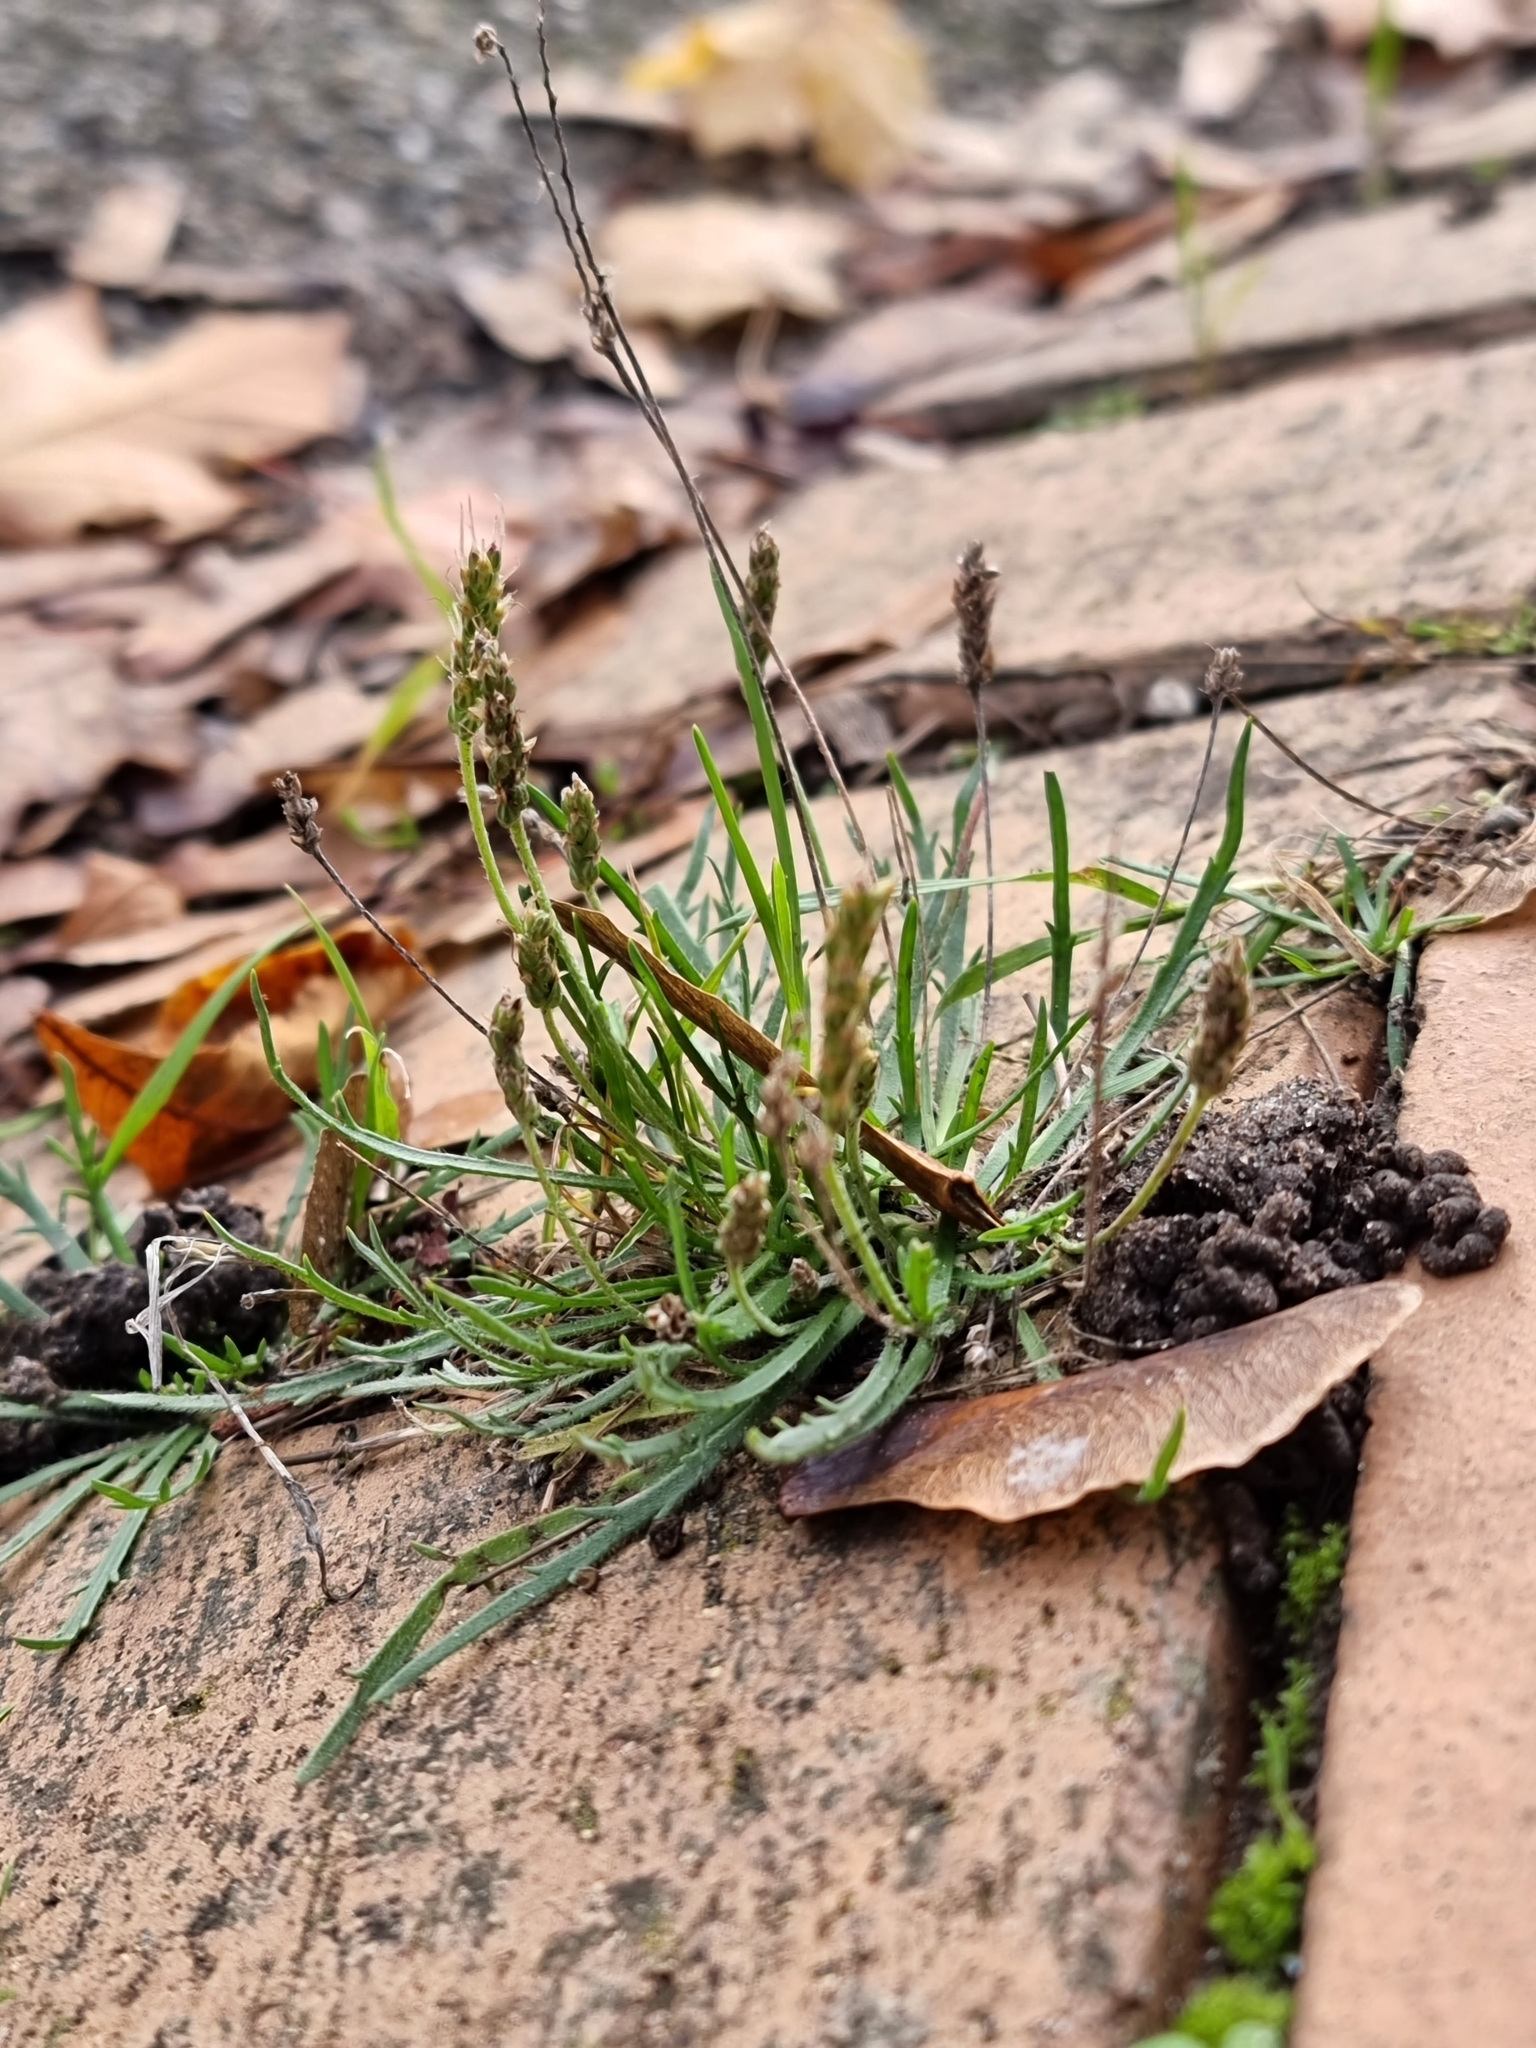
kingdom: Plantae
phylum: Tracheophyta
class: Magnoliopsida
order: Lamiales
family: Plantaginaceae
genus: Plantago
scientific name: Plantago coronopus
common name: Buck's-horn plantain
